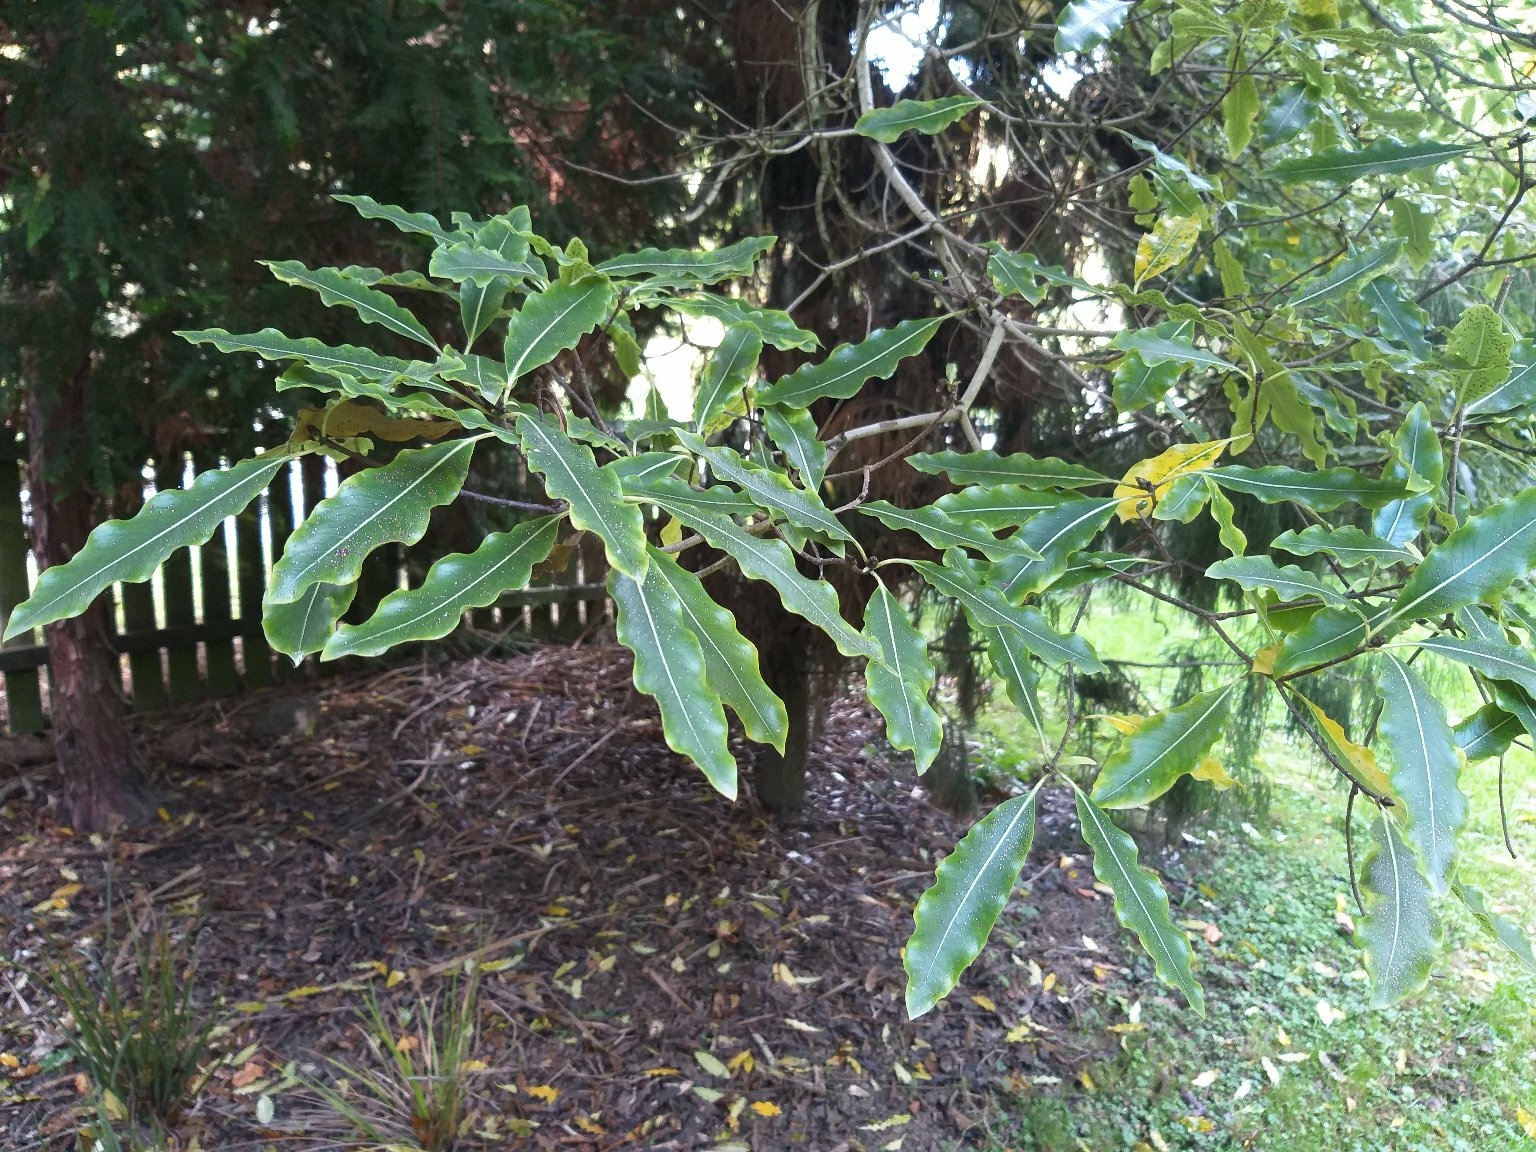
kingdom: Plantae
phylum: Tracheophyta
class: Magnoliopsida
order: Apiales
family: Pittosporaceae
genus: Pittosporum
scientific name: Pittosporum eugenioides
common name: Lemonwood
